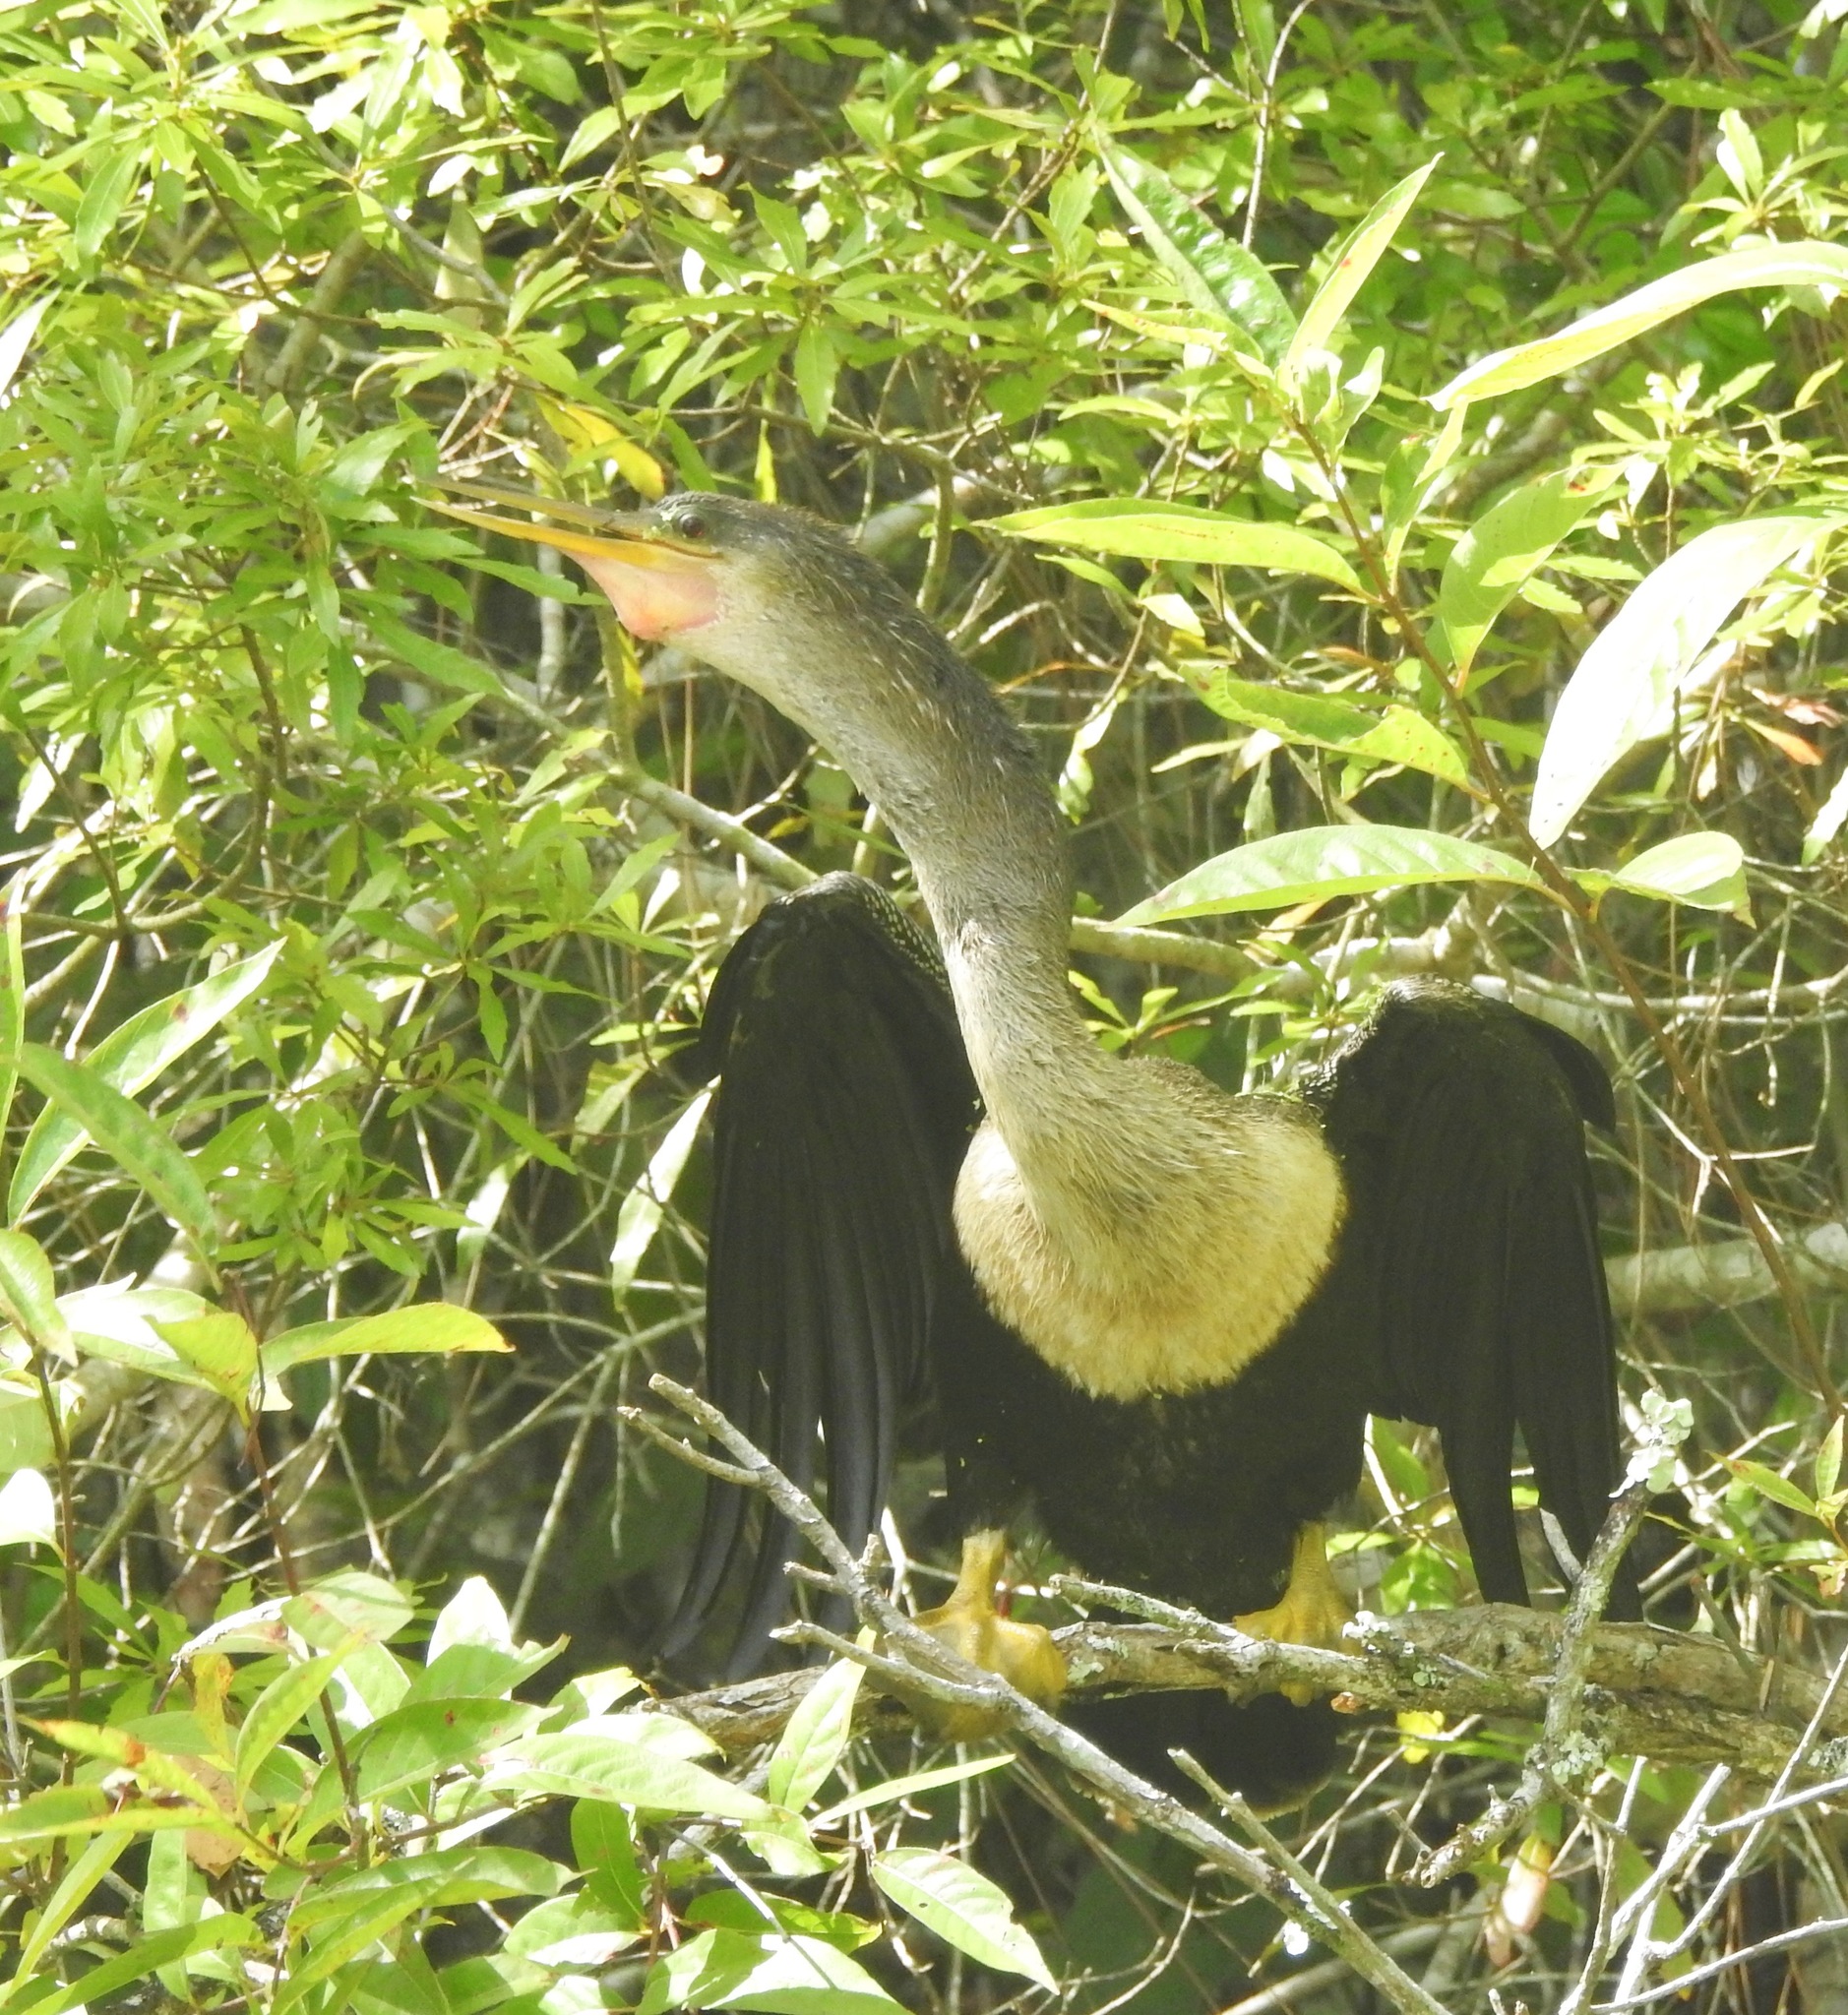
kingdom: Animalia
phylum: Chordata
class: Aves
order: Suliformes
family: Anhingidae
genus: Anhinga
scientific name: Anhinga anhinga
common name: Anhinga
